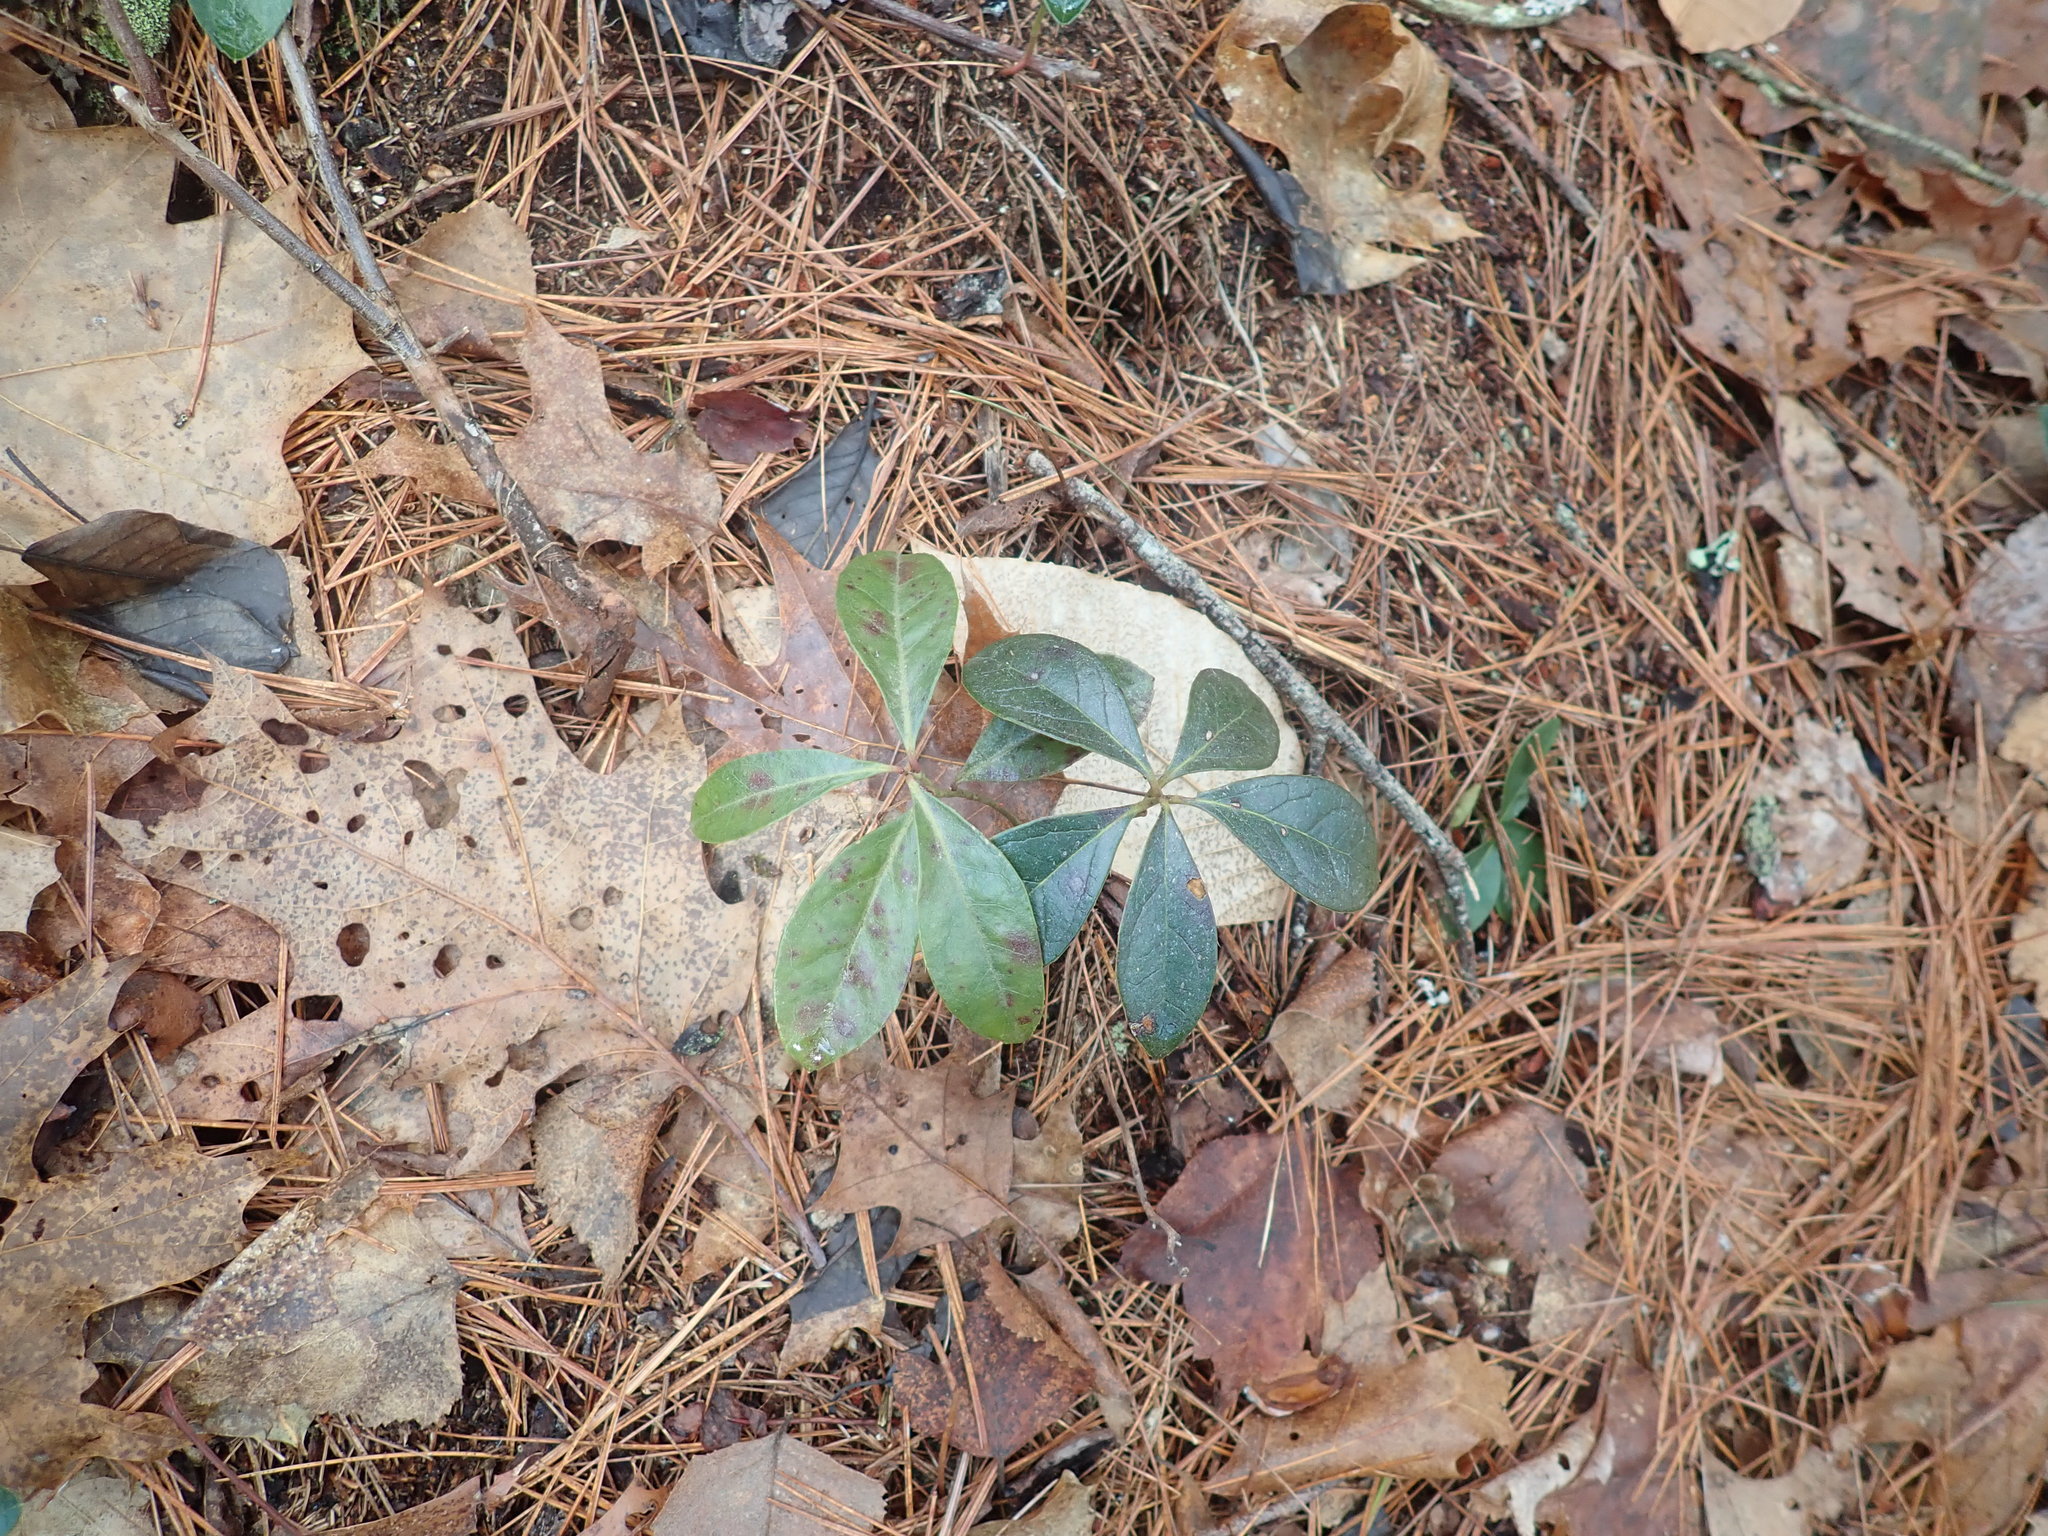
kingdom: Plantae
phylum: Tracheophyta
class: Magnoliopsida
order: Ericales
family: Ericaceae
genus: Gaultheria
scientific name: Gaultheria procumbens
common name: Checkerberry
